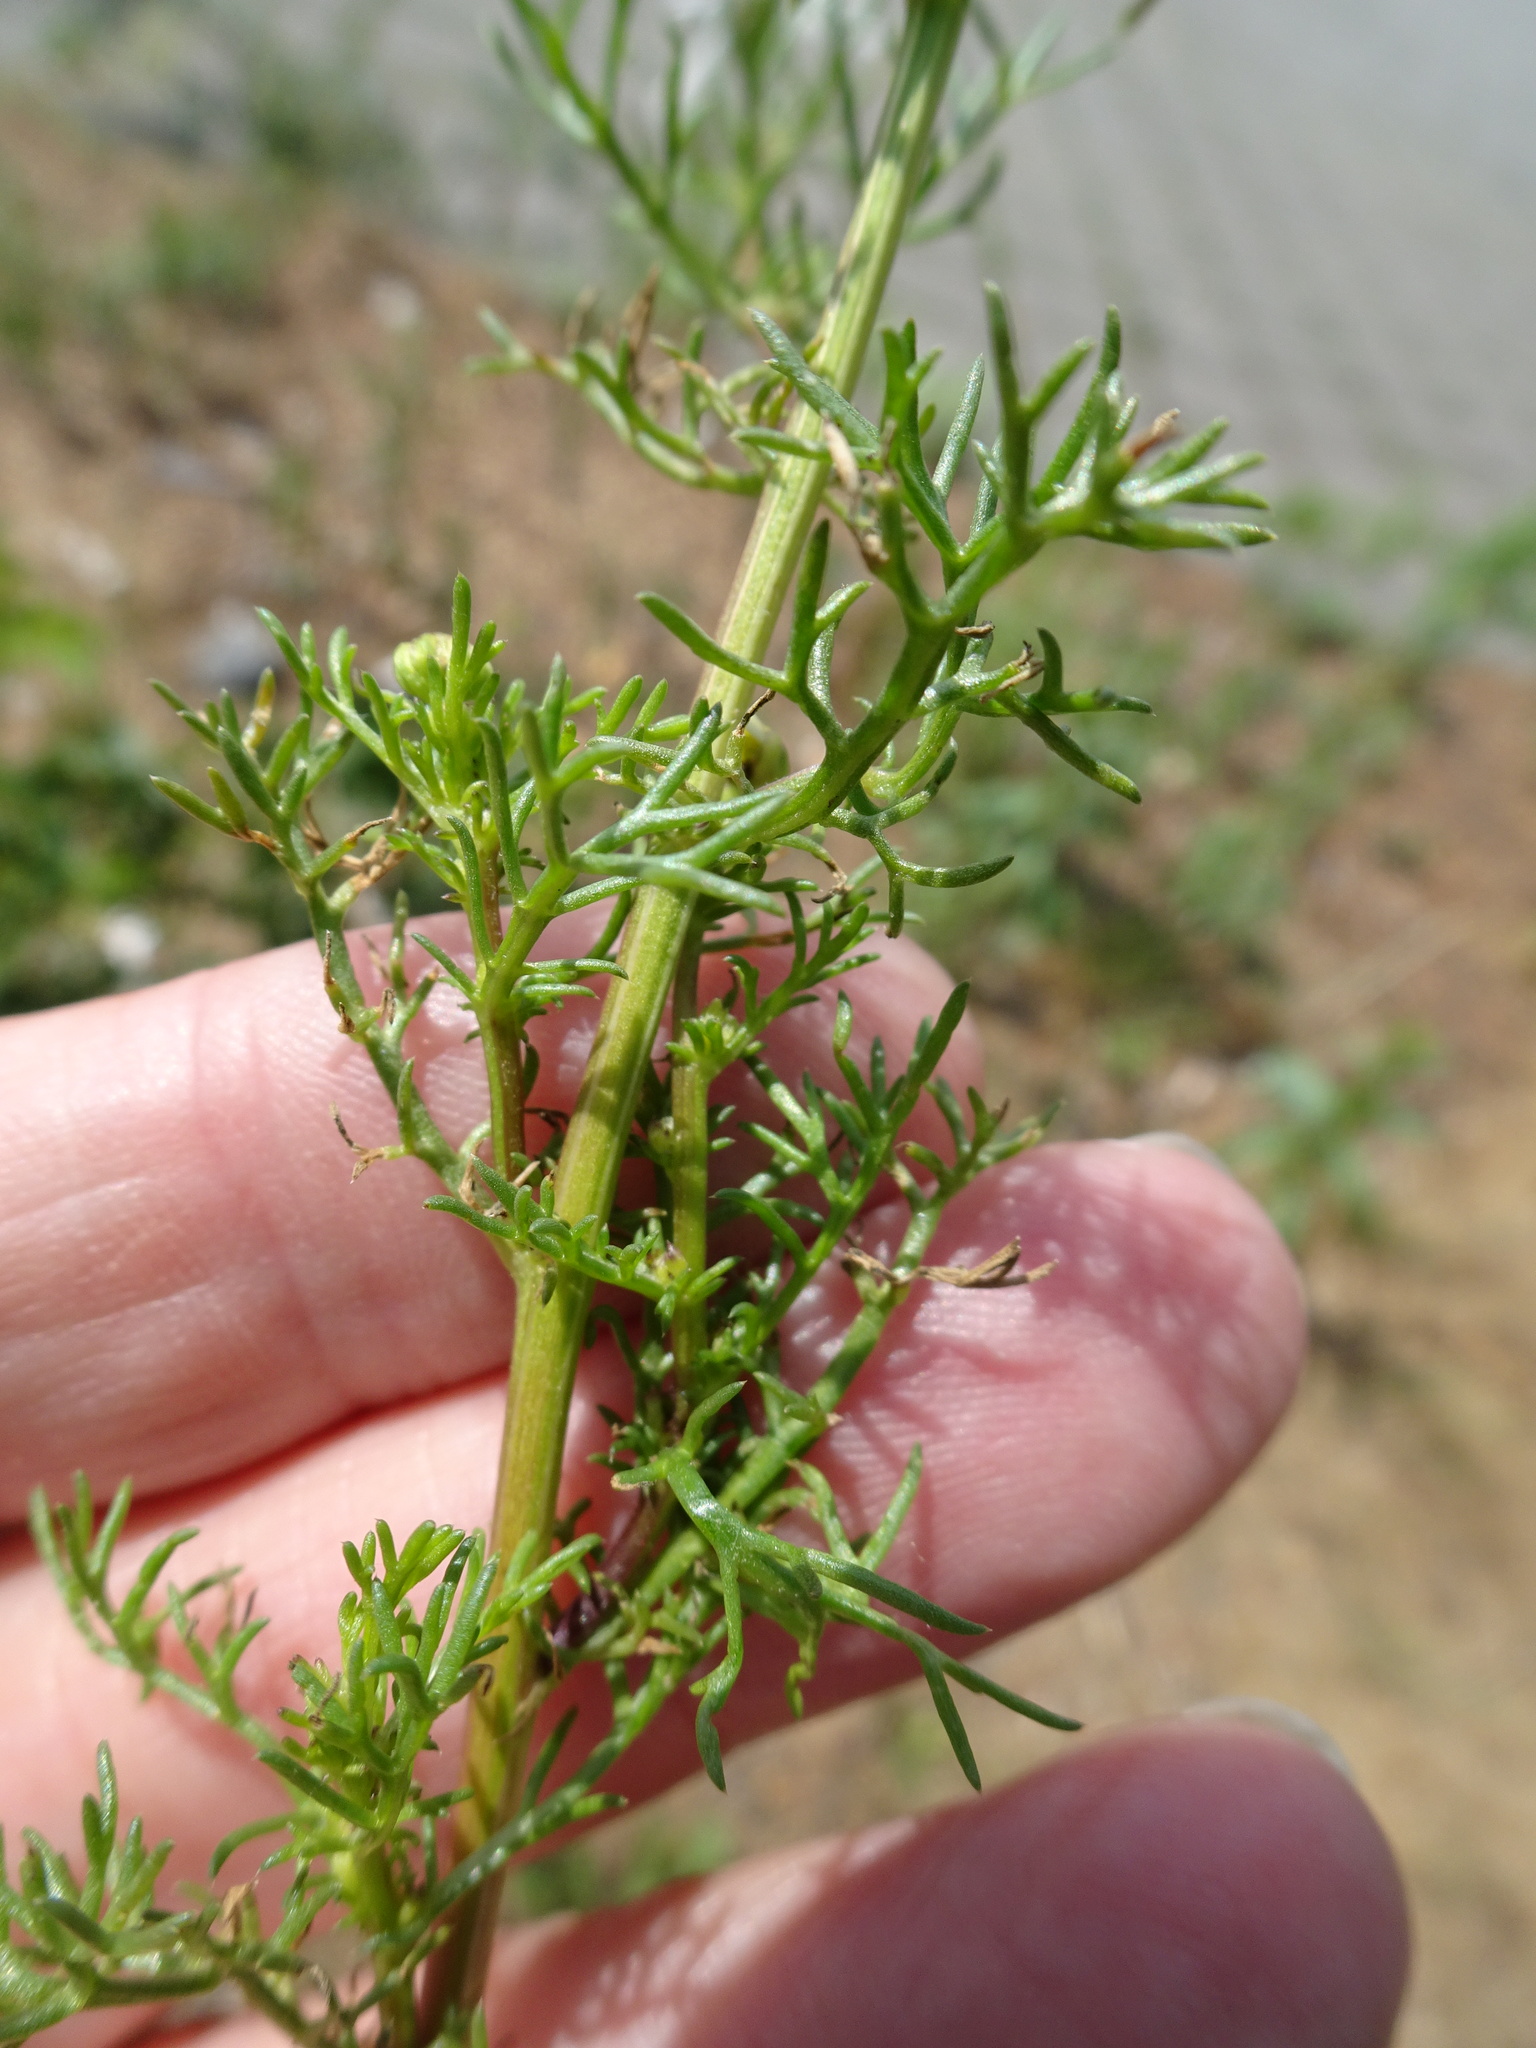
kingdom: Plantae
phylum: Tracheophyta
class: Magnoliopsida
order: Asterales
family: Asteraceae
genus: Matricaria
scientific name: Matricaria chamomilla
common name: Scented mayweed
